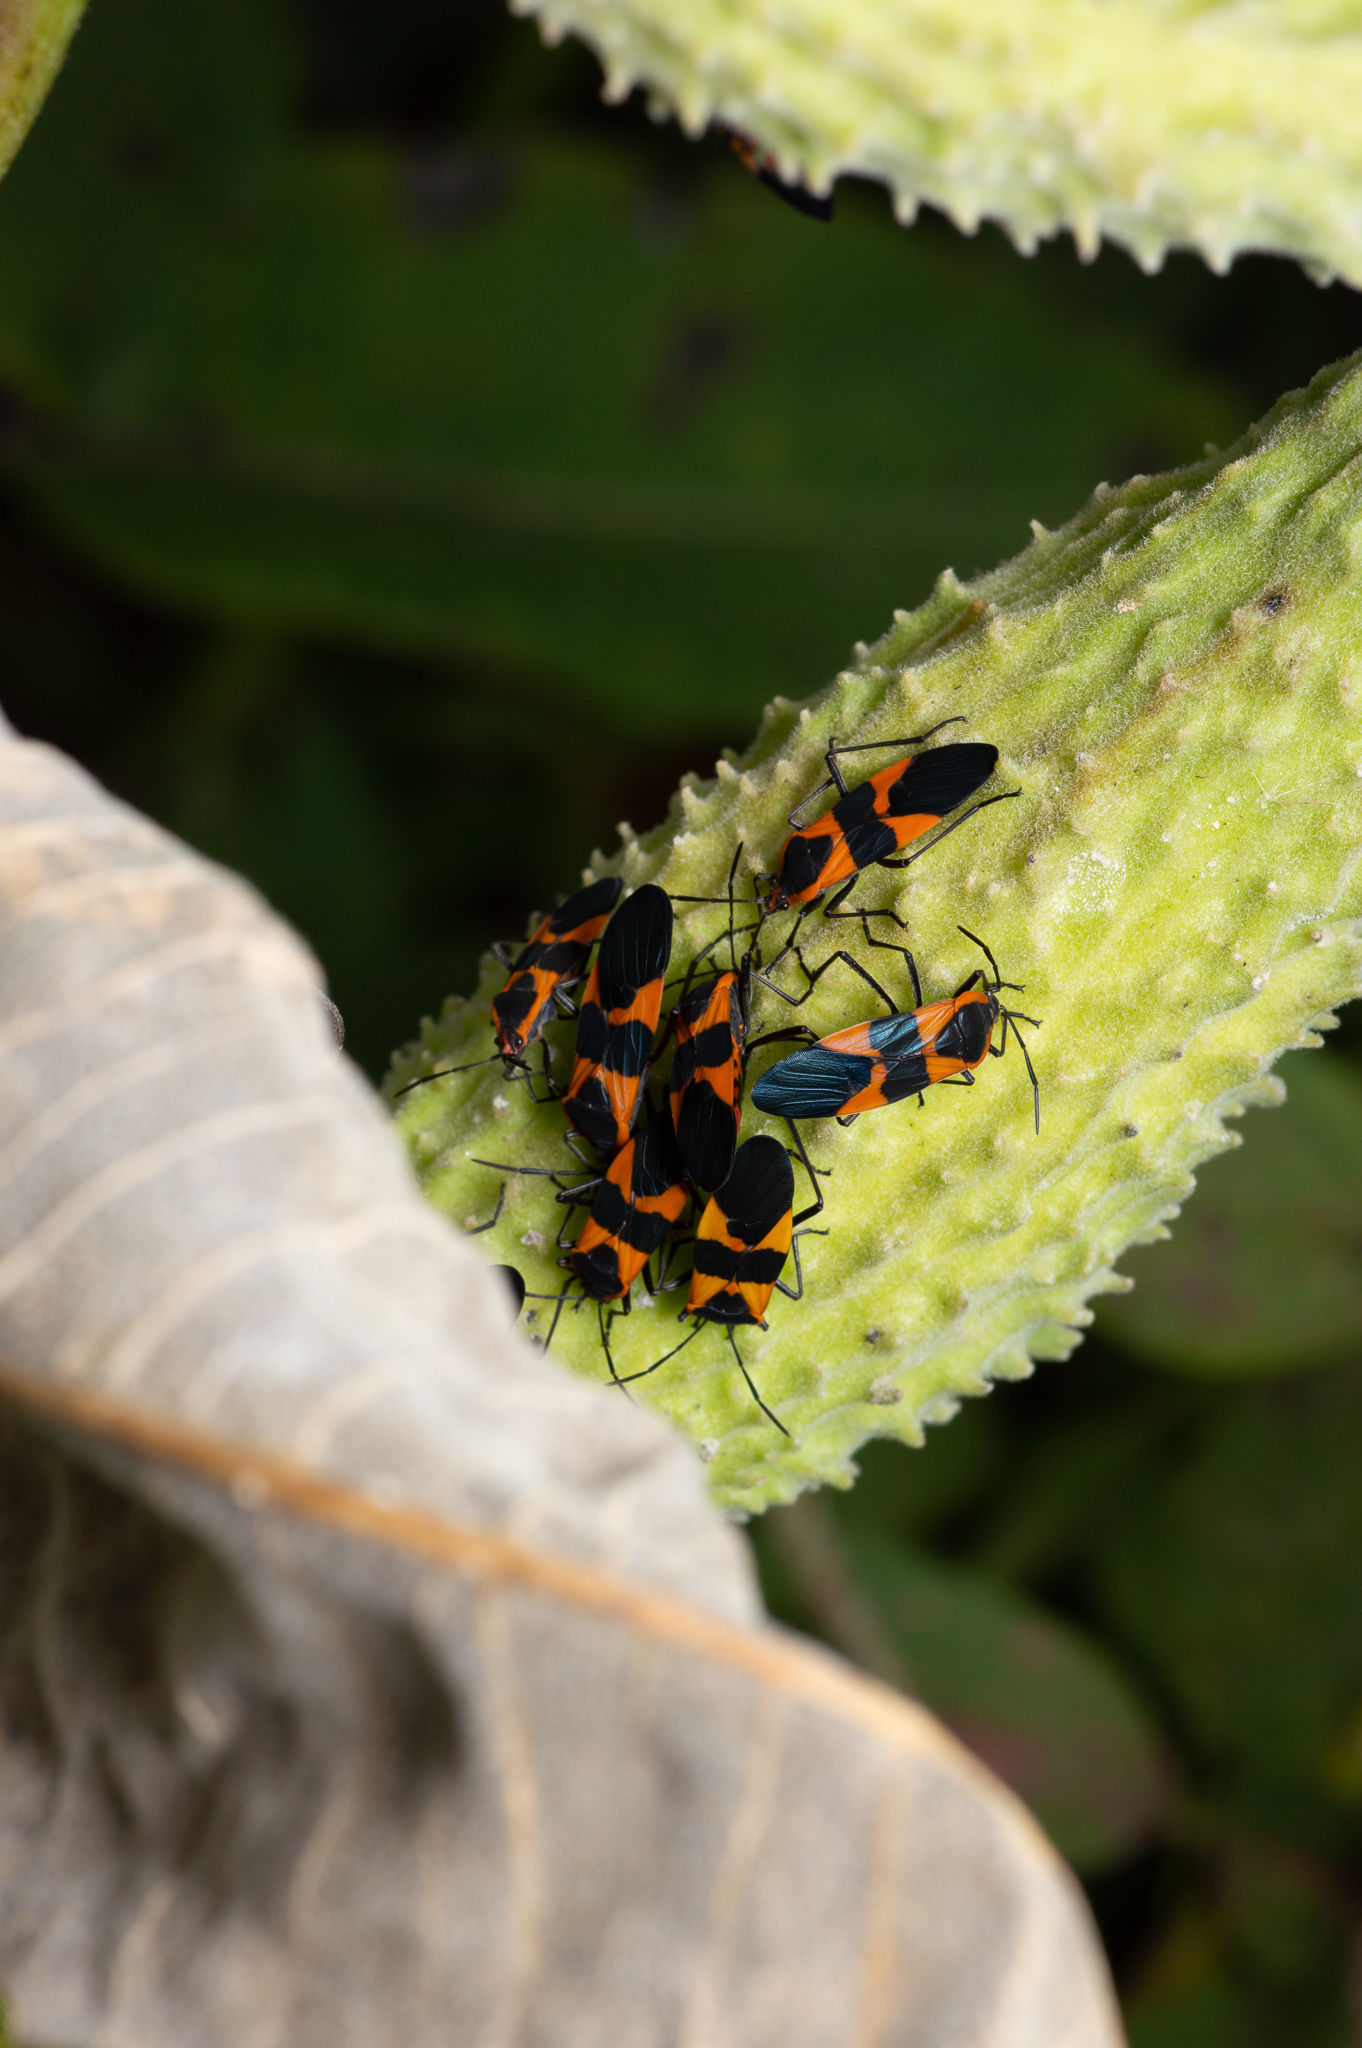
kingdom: Animalia
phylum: Arthropoda
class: Insecta
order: Hemiptera
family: Lygaeidae
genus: Oncopeltus
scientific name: Oncopeltus fasciatus
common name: Large milkweed bug
